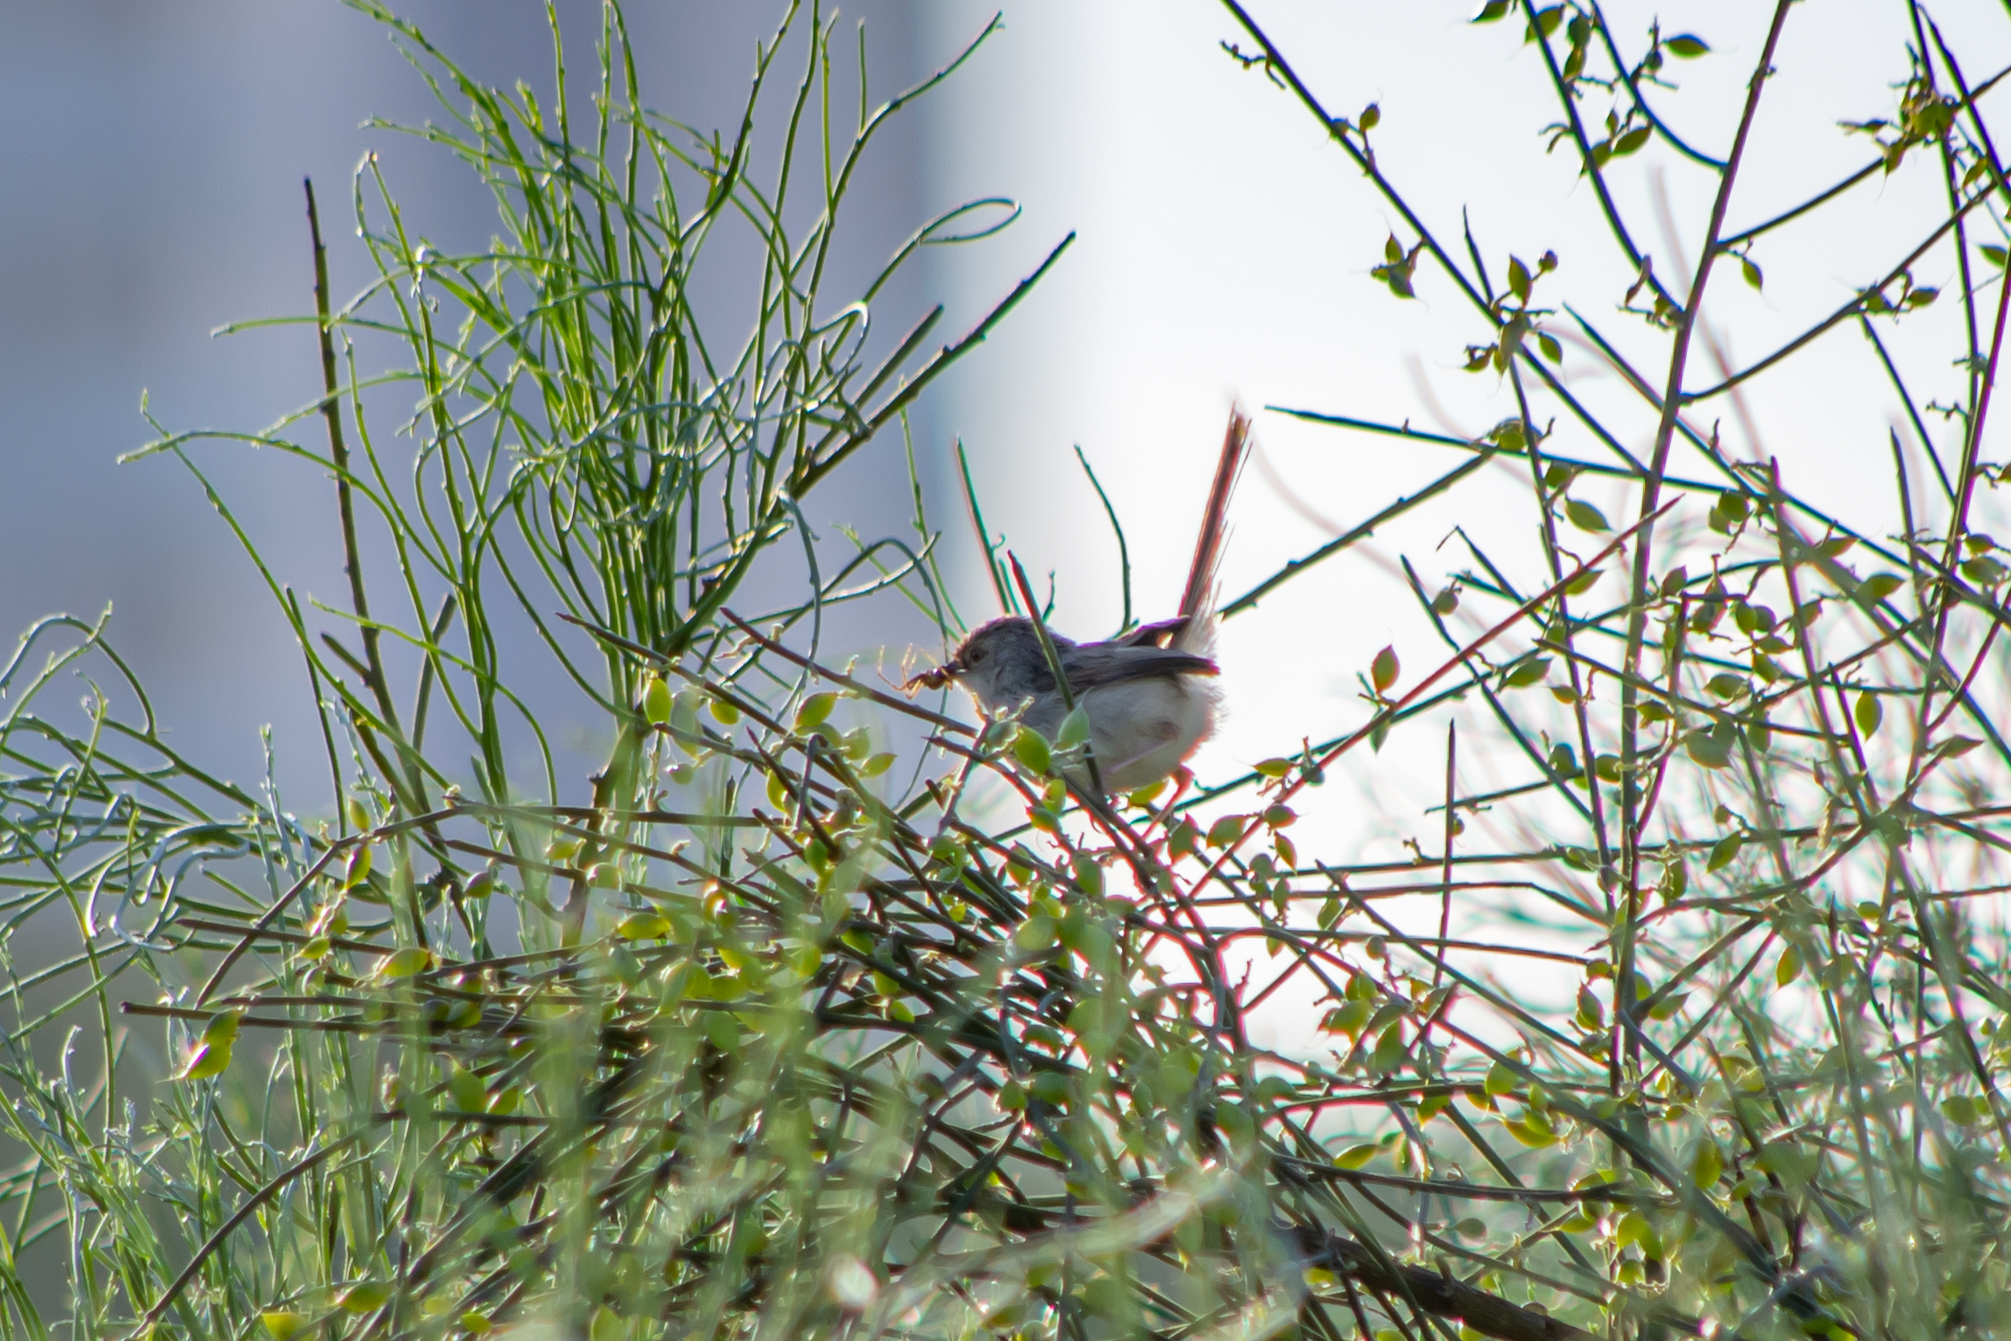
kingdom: Animalia
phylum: Chordata
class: Aves
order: Passeriformes
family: Cisticolidae
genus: Prinia
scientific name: Prinia gracilis
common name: Graceful prinia
